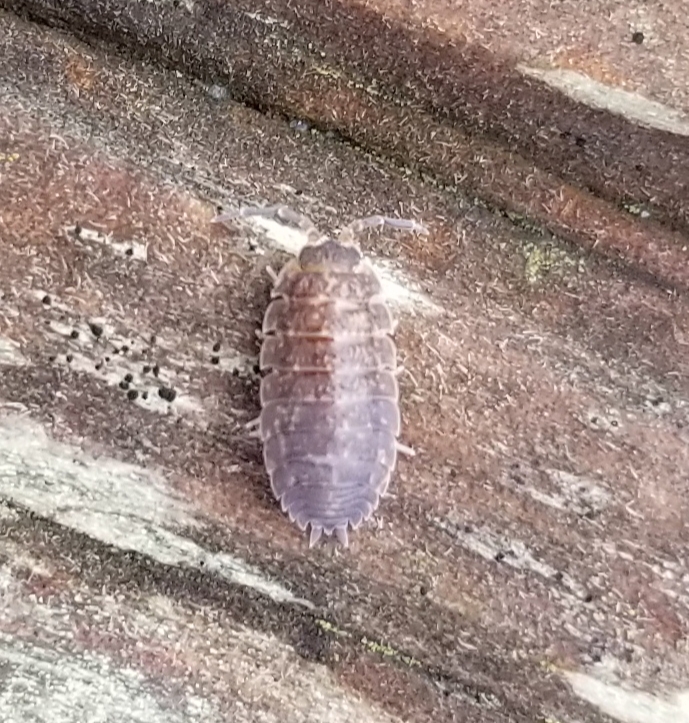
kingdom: Animalia
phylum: Arthropoda
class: Malacostraca
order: Isopoda
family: Porcellionidae
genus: Porcellio
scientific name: Porcellio scaber
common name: Common rough woodlouse
